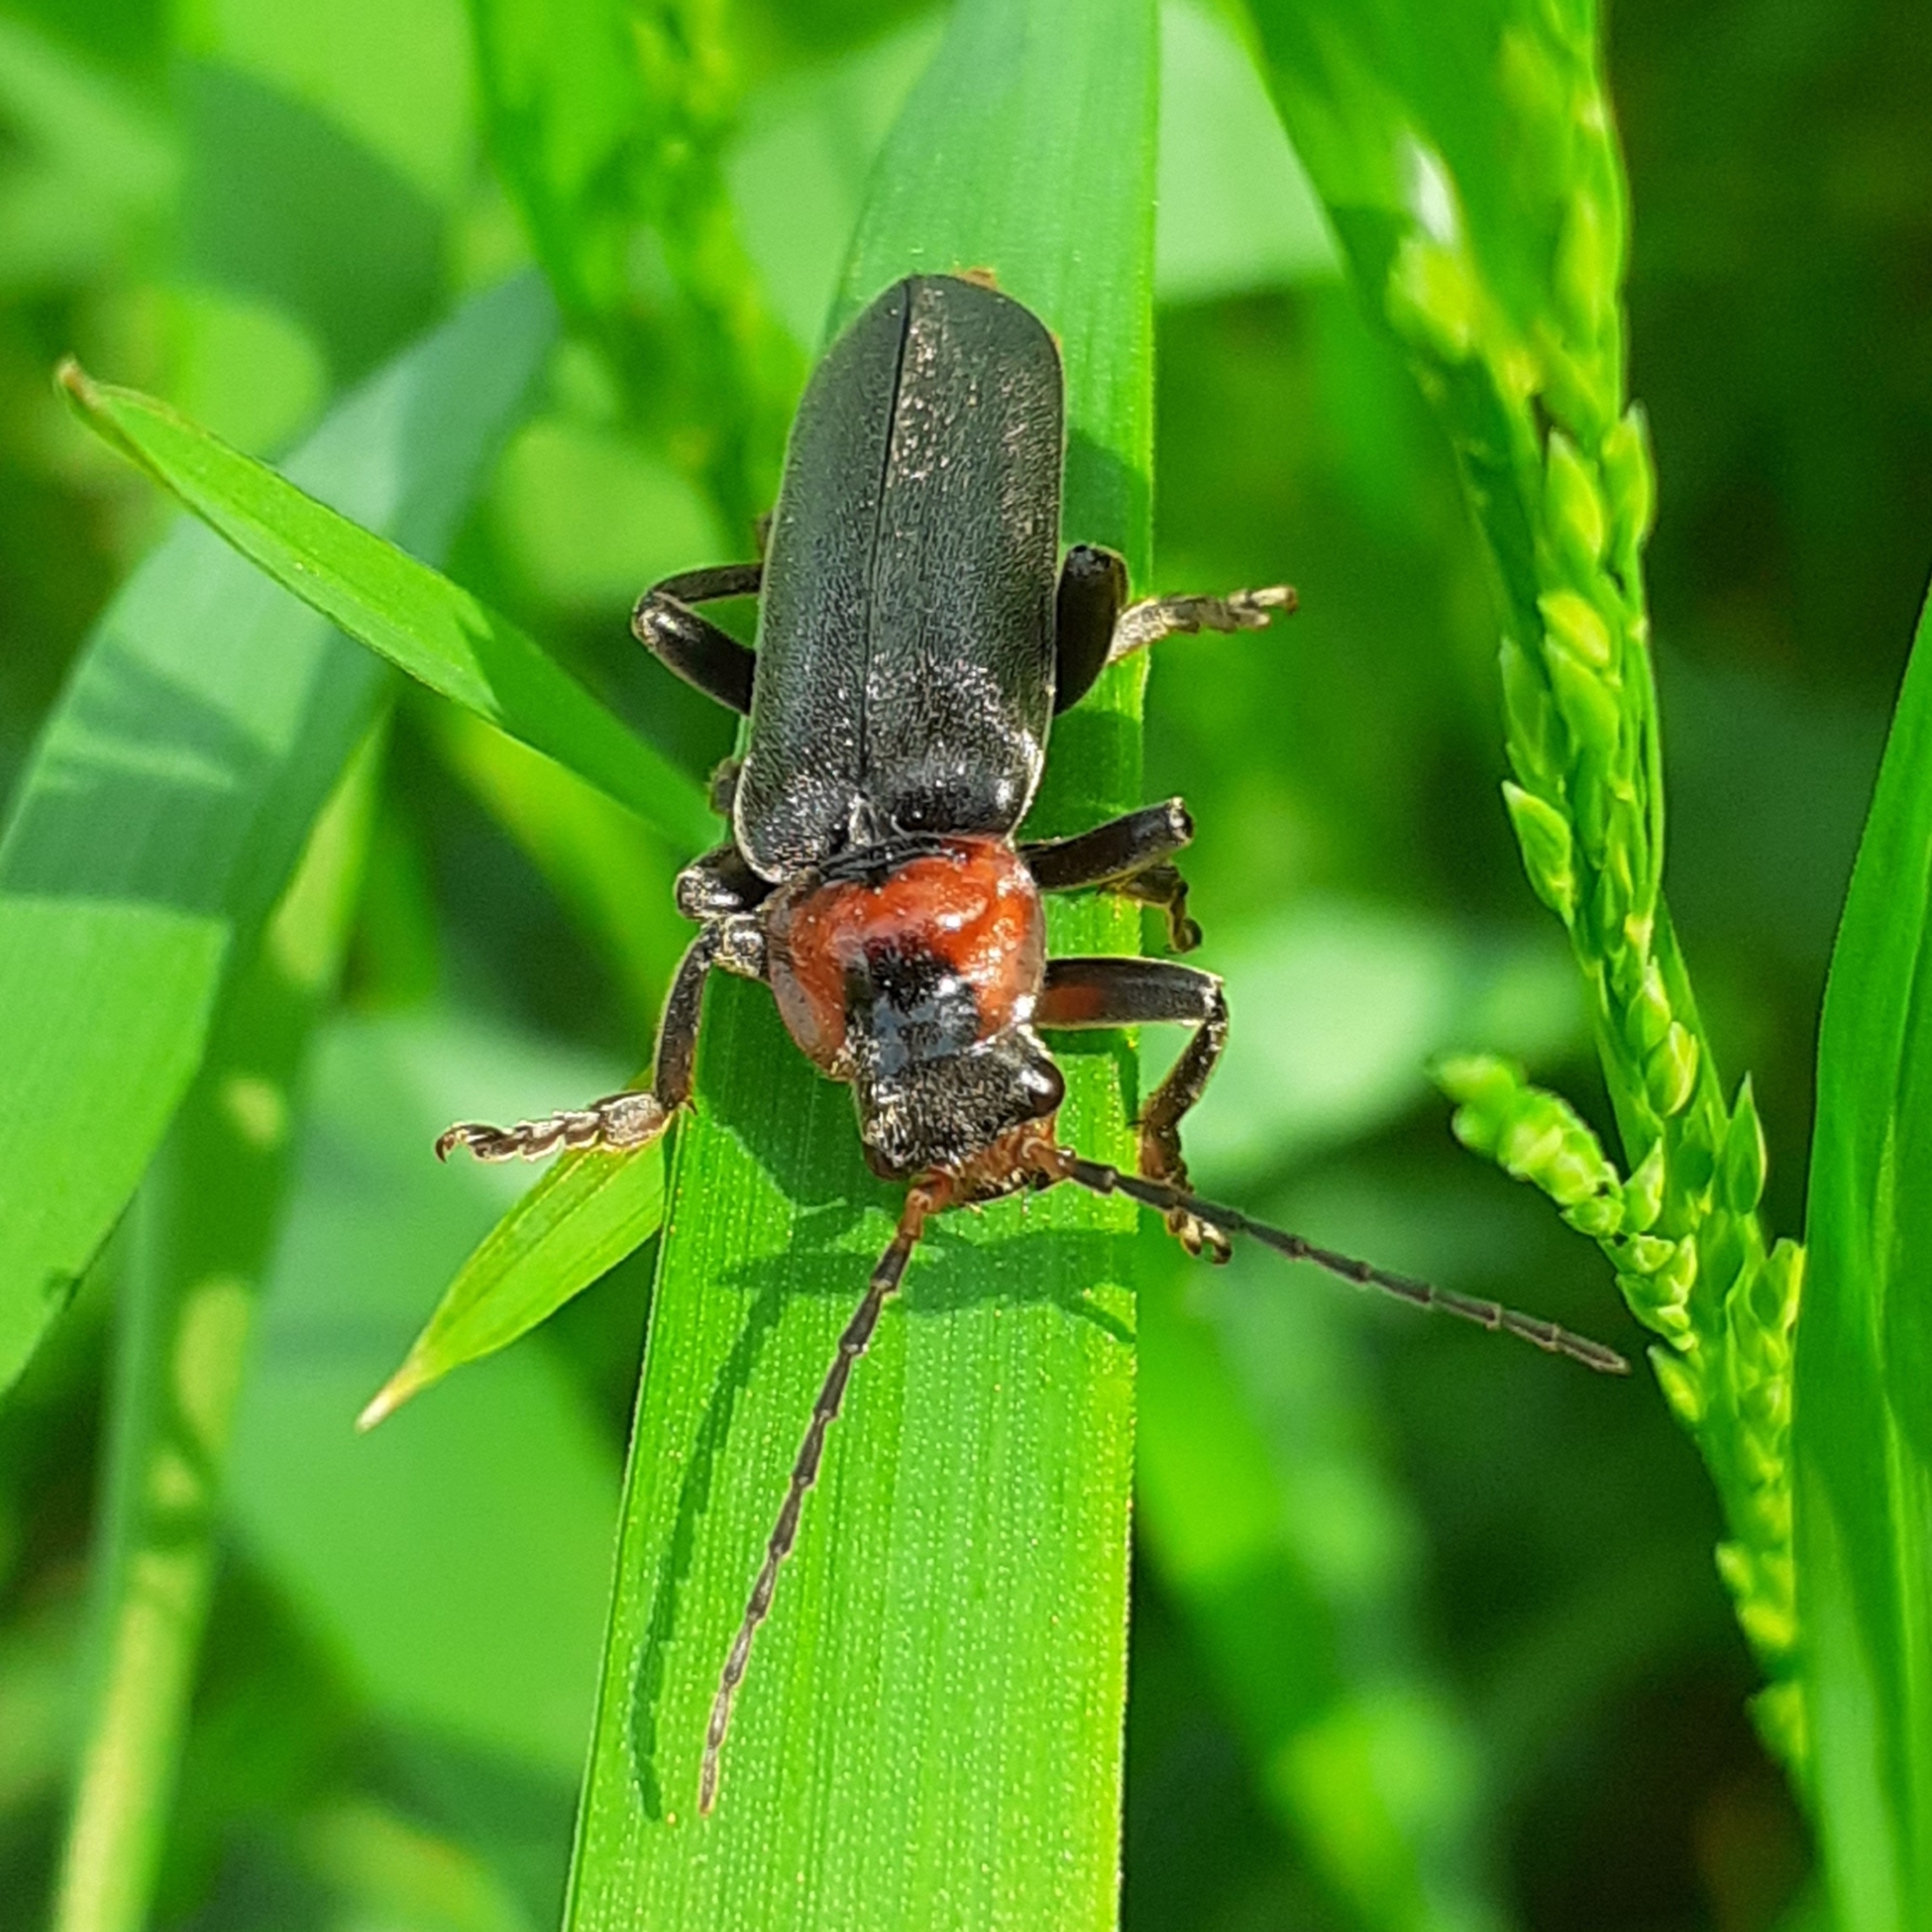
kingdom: Animalia
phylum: Arthropoda
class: Insecta
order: Coleoptera
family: Cantharidae
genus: Cantharis
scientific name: Cantharis fusca
